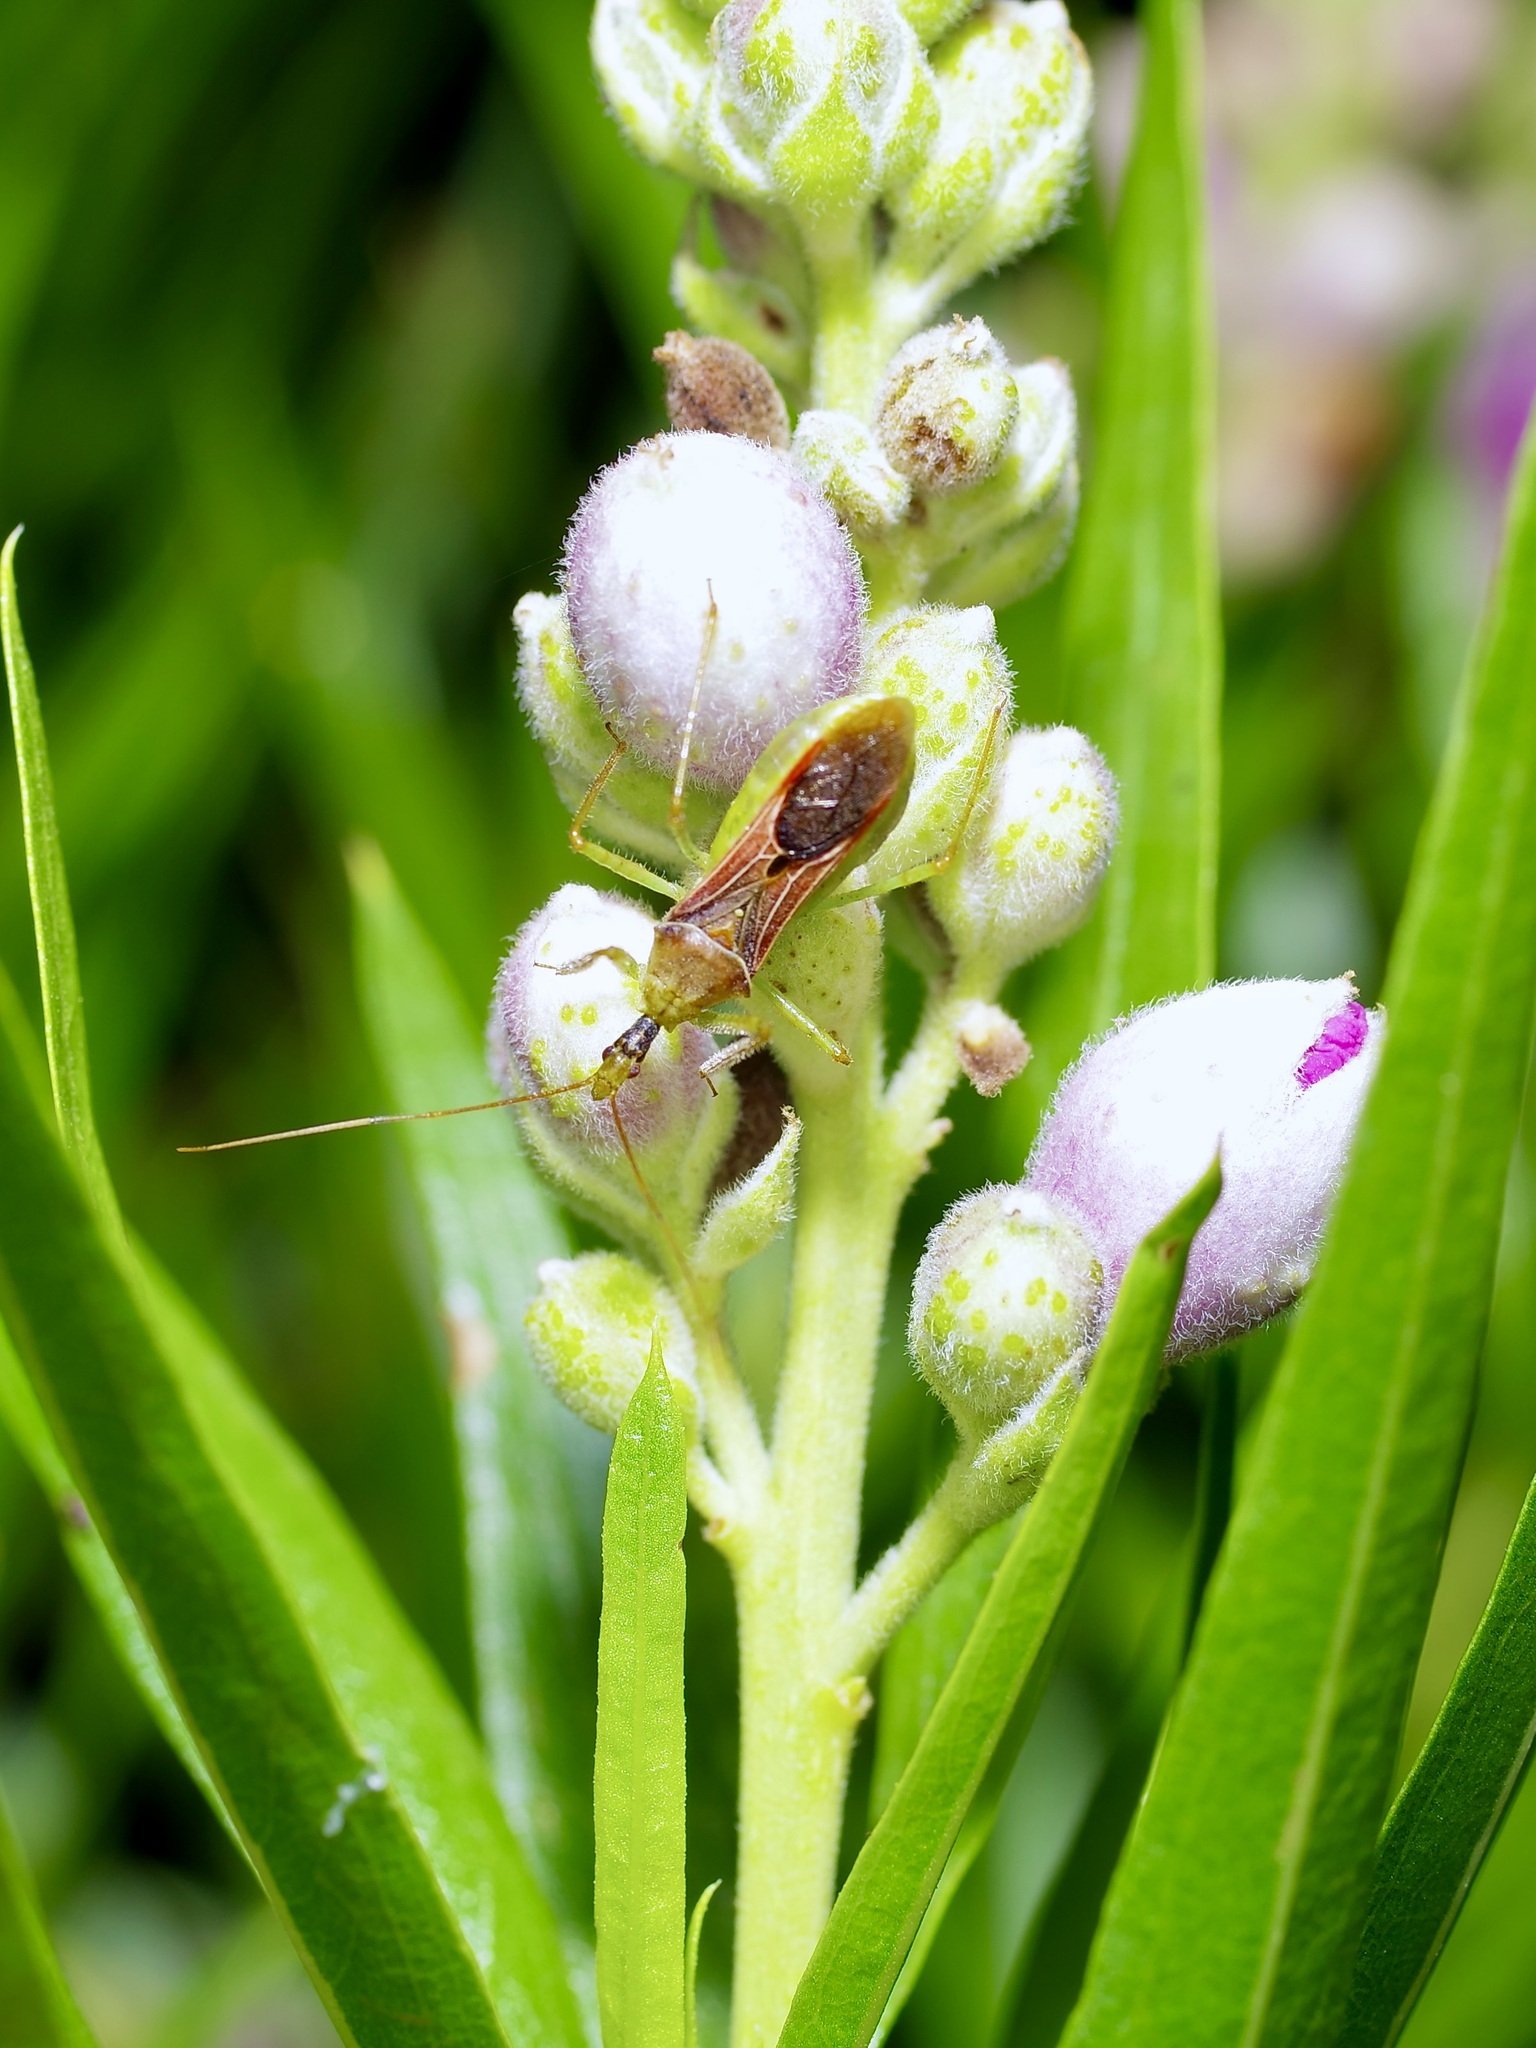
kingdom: Animalia
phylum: Arthropoda
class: Insecta
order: Hemiptera
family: Reduviidae
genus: Zelus
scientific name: Zelus renardii
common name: Assassin bug
